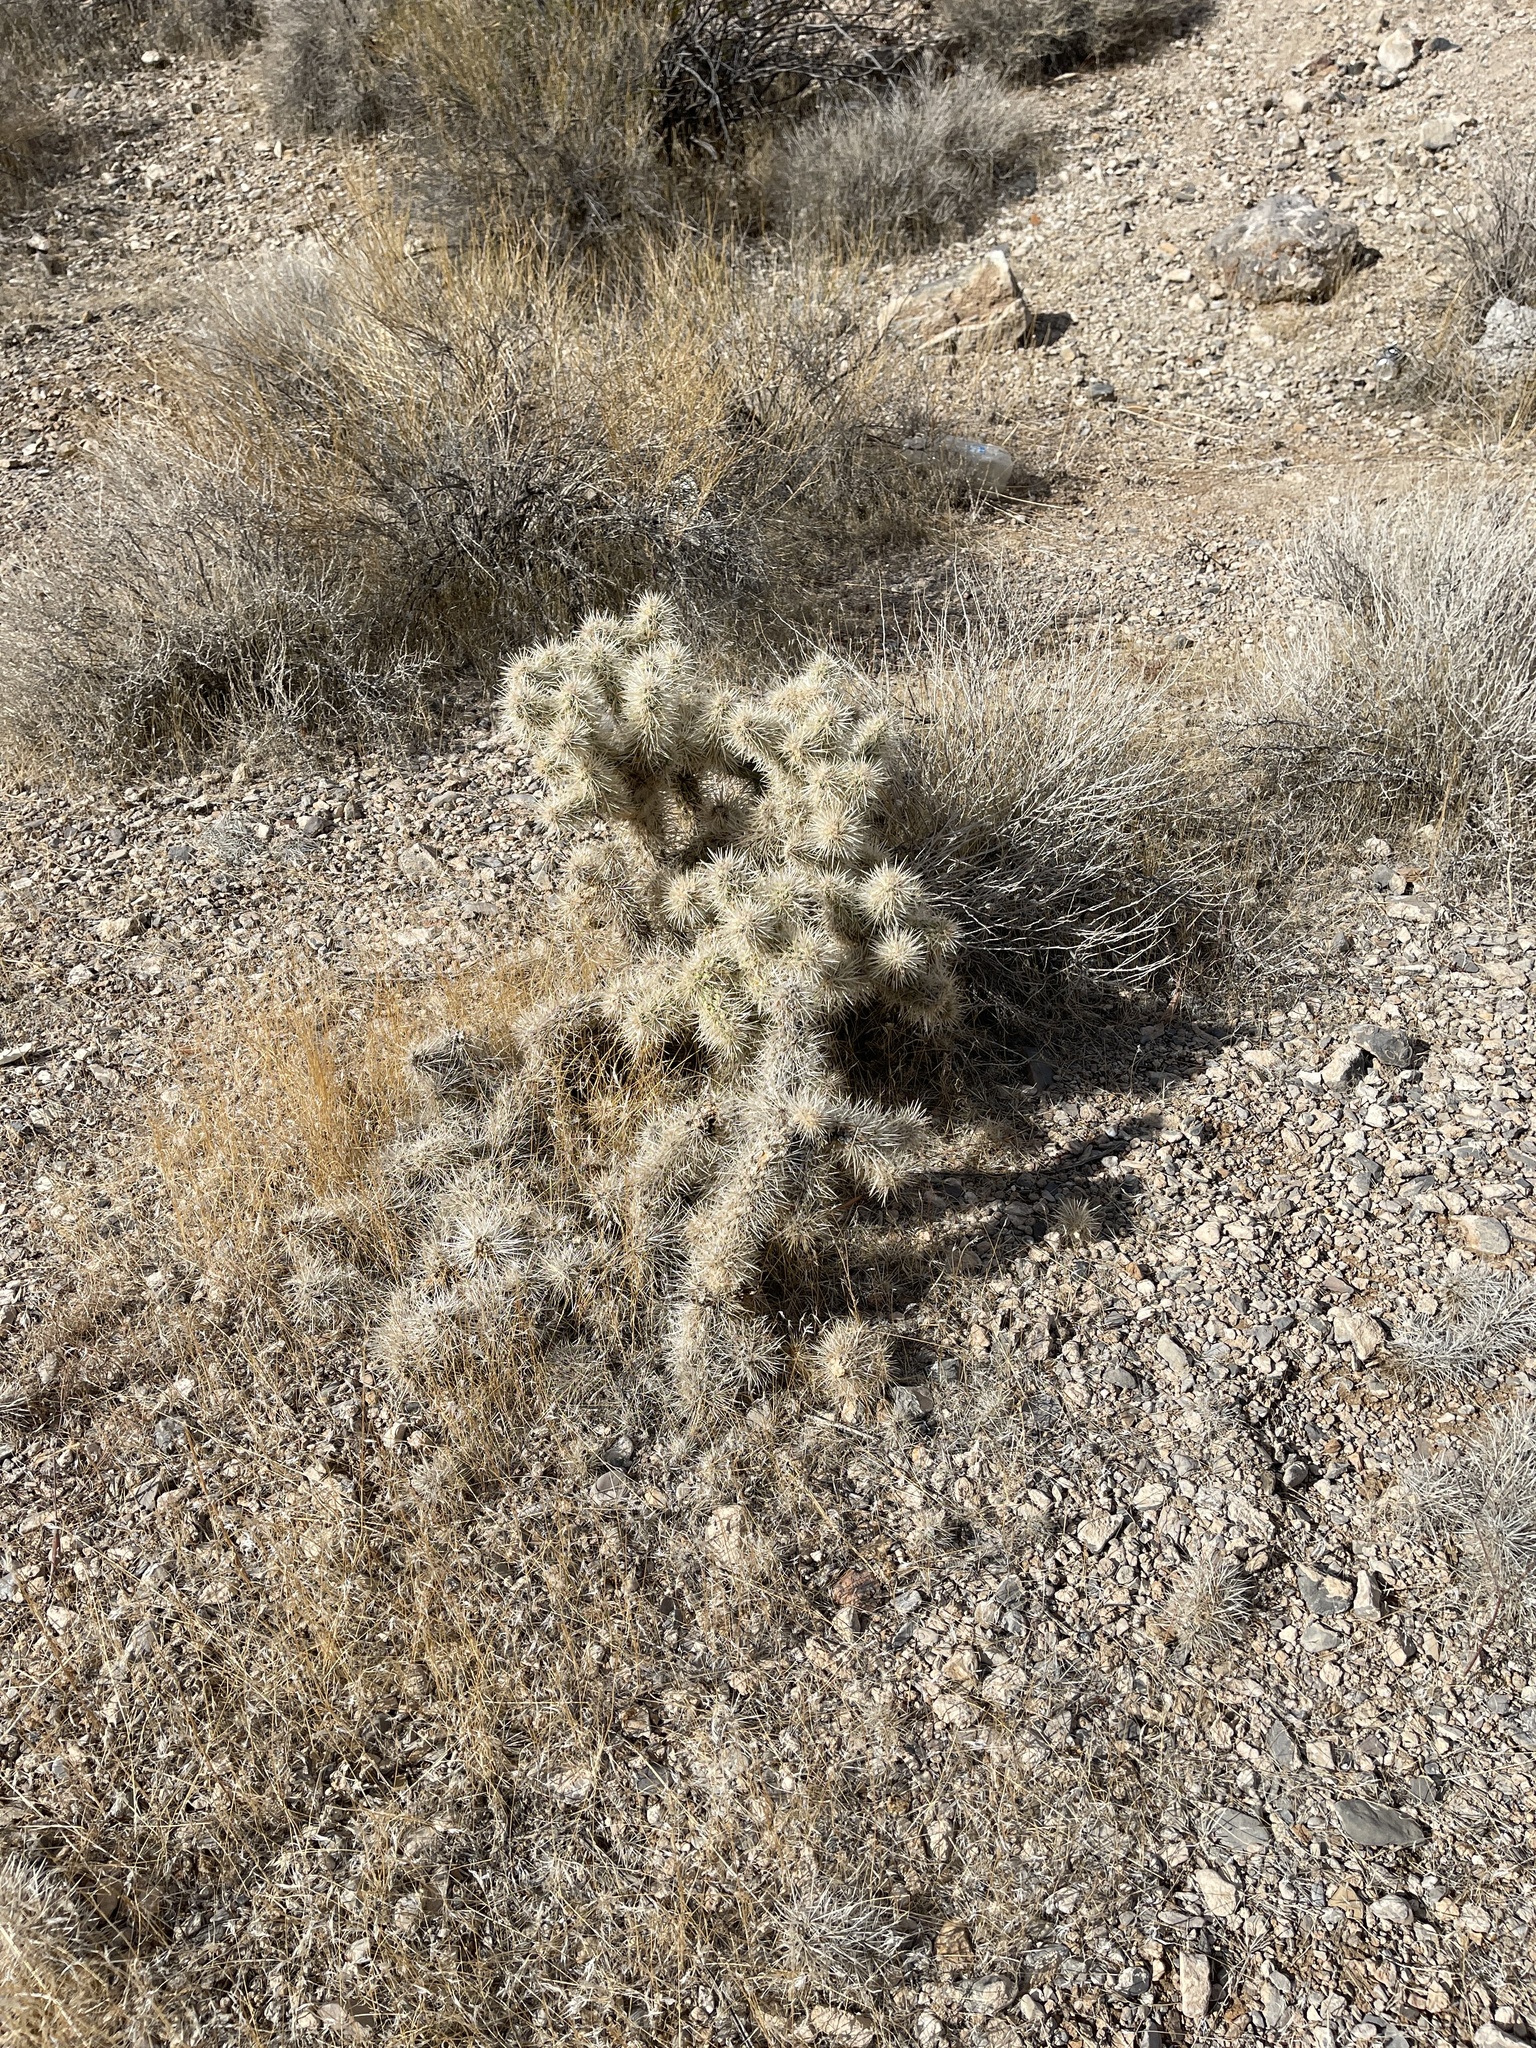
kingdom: Plantae
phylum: Tracheophyta
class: Magnoliopsida
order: Caryophyllales
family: Cactaceae
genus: Cylindropuntia
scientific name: Cylindropuntia echinocarpa
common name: Ground cholla
